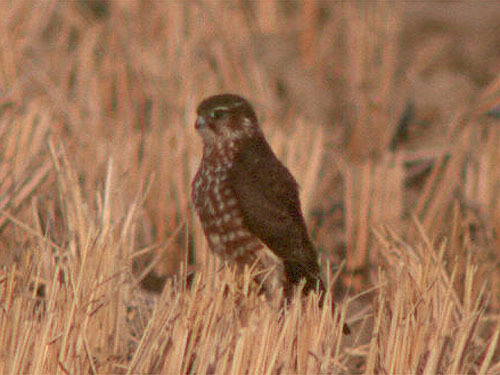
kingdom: Animalia
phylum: Chordata
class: Aves
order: Falconiformes
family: Falconidae
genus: Falco
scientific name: Falco columbarius
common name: Merlin
